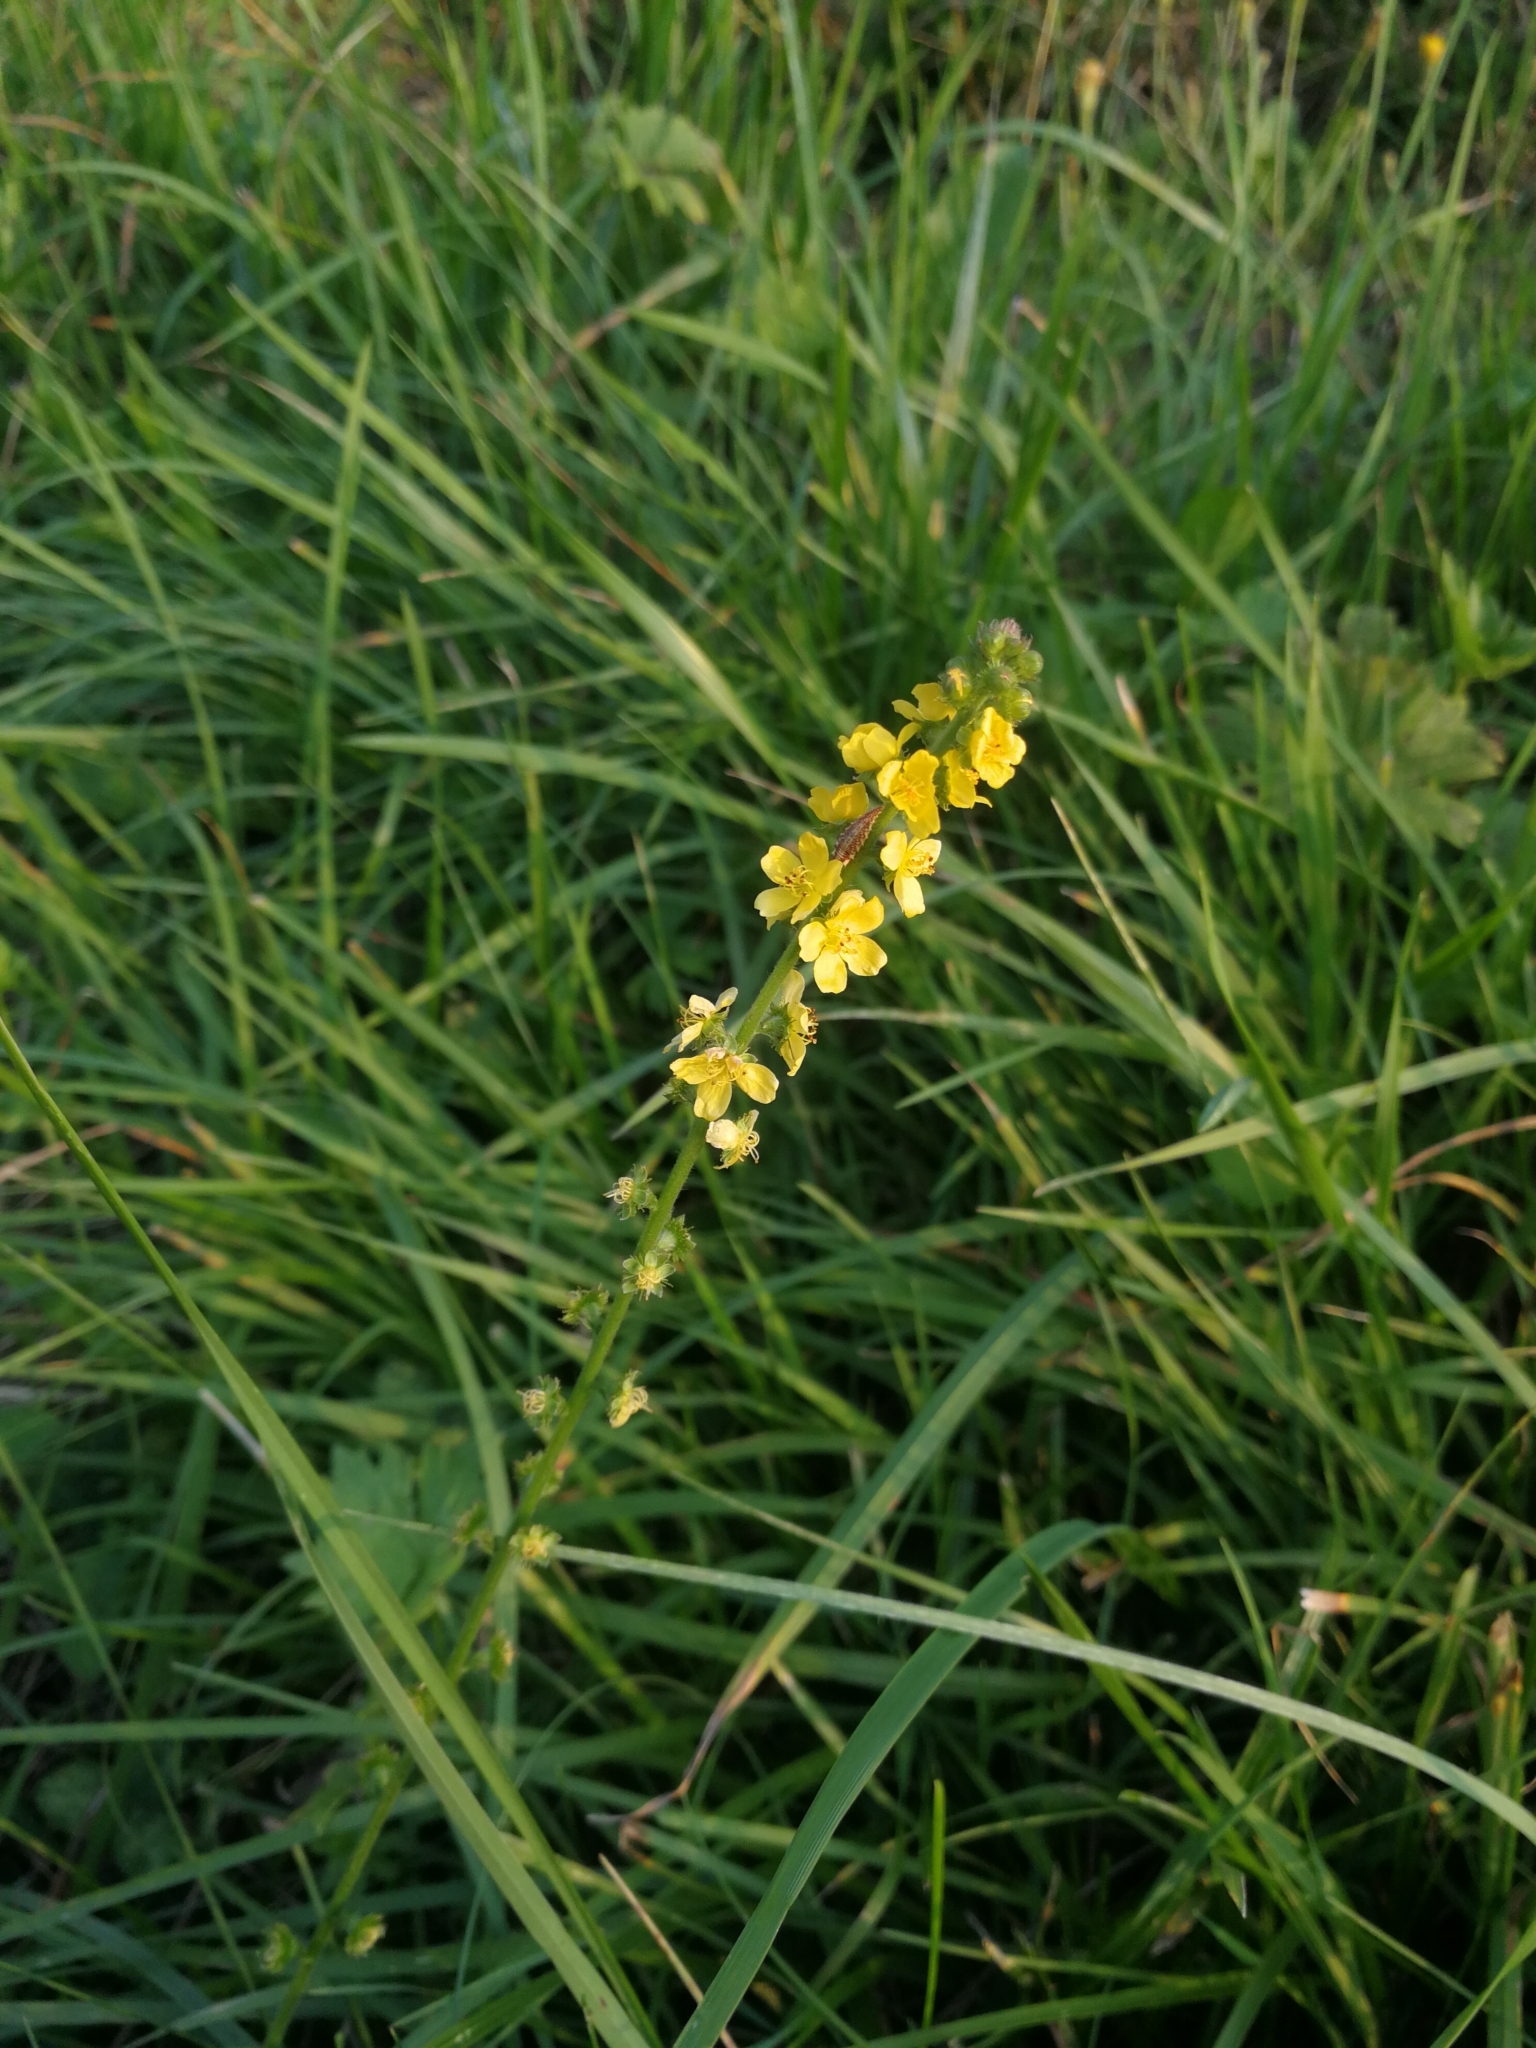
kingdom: Plantae
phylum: Tracheophyta
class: Magnoliopsida
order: Rosales
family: Rosaceae
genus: Agrimonia
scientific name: Agrimonia eupatoria
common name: Agrimony
